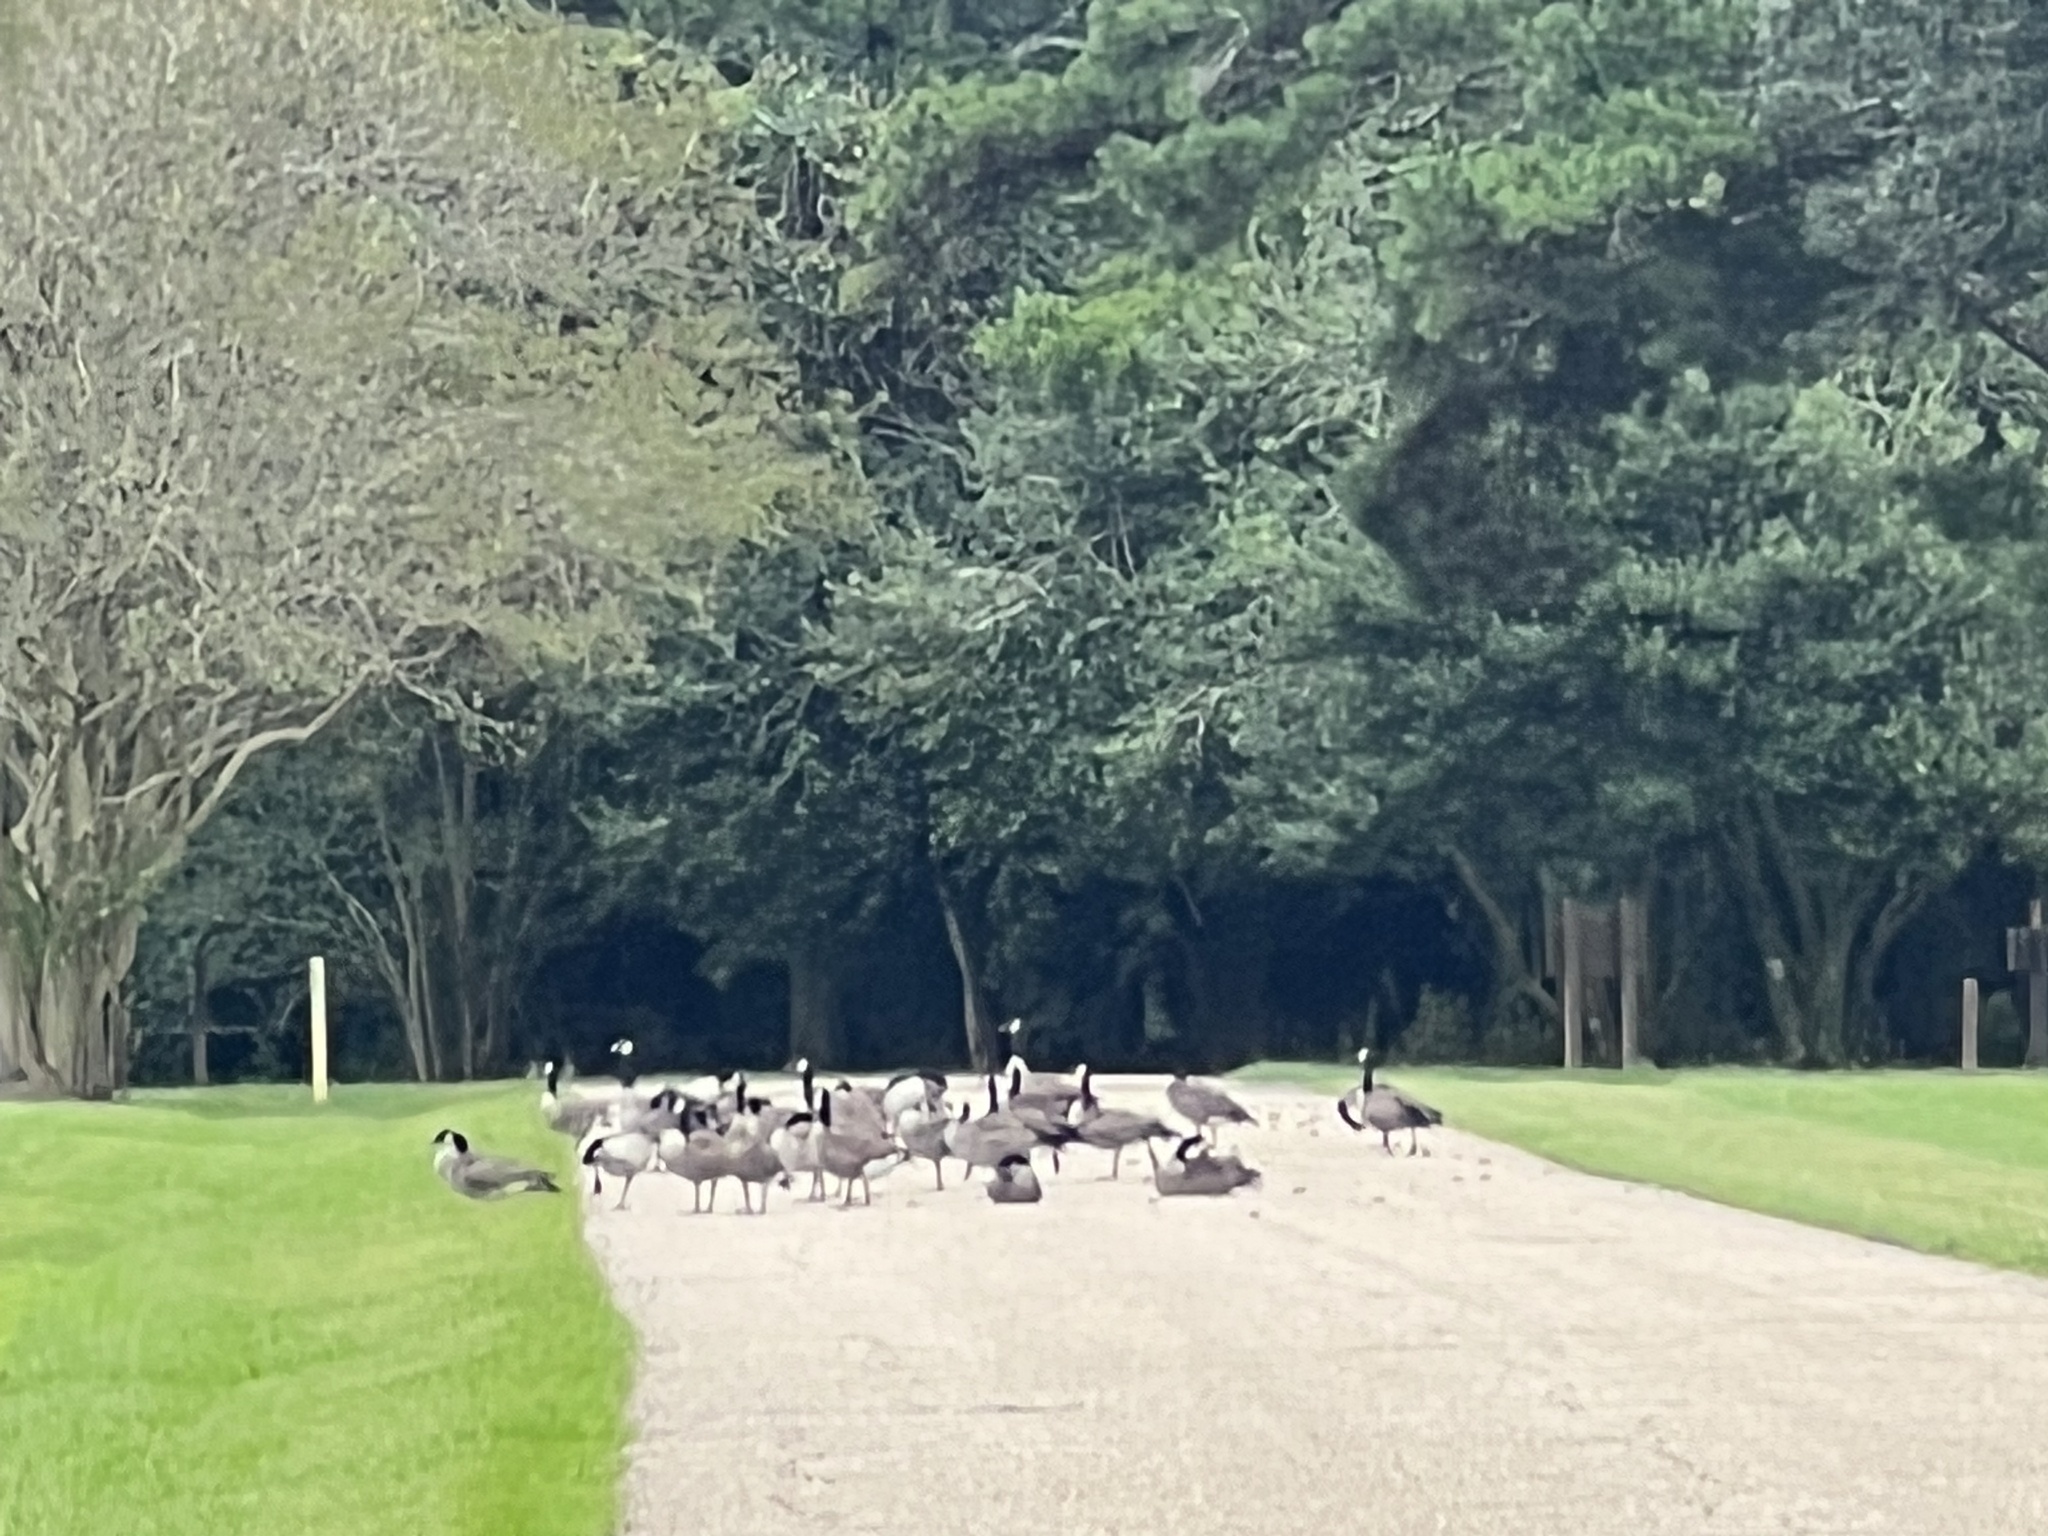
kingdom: Animalia
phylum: Chordata
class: Aves
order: Anseriformes
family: Anatidae
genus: Branta
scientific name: Branta canadensis
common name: Canada goose
